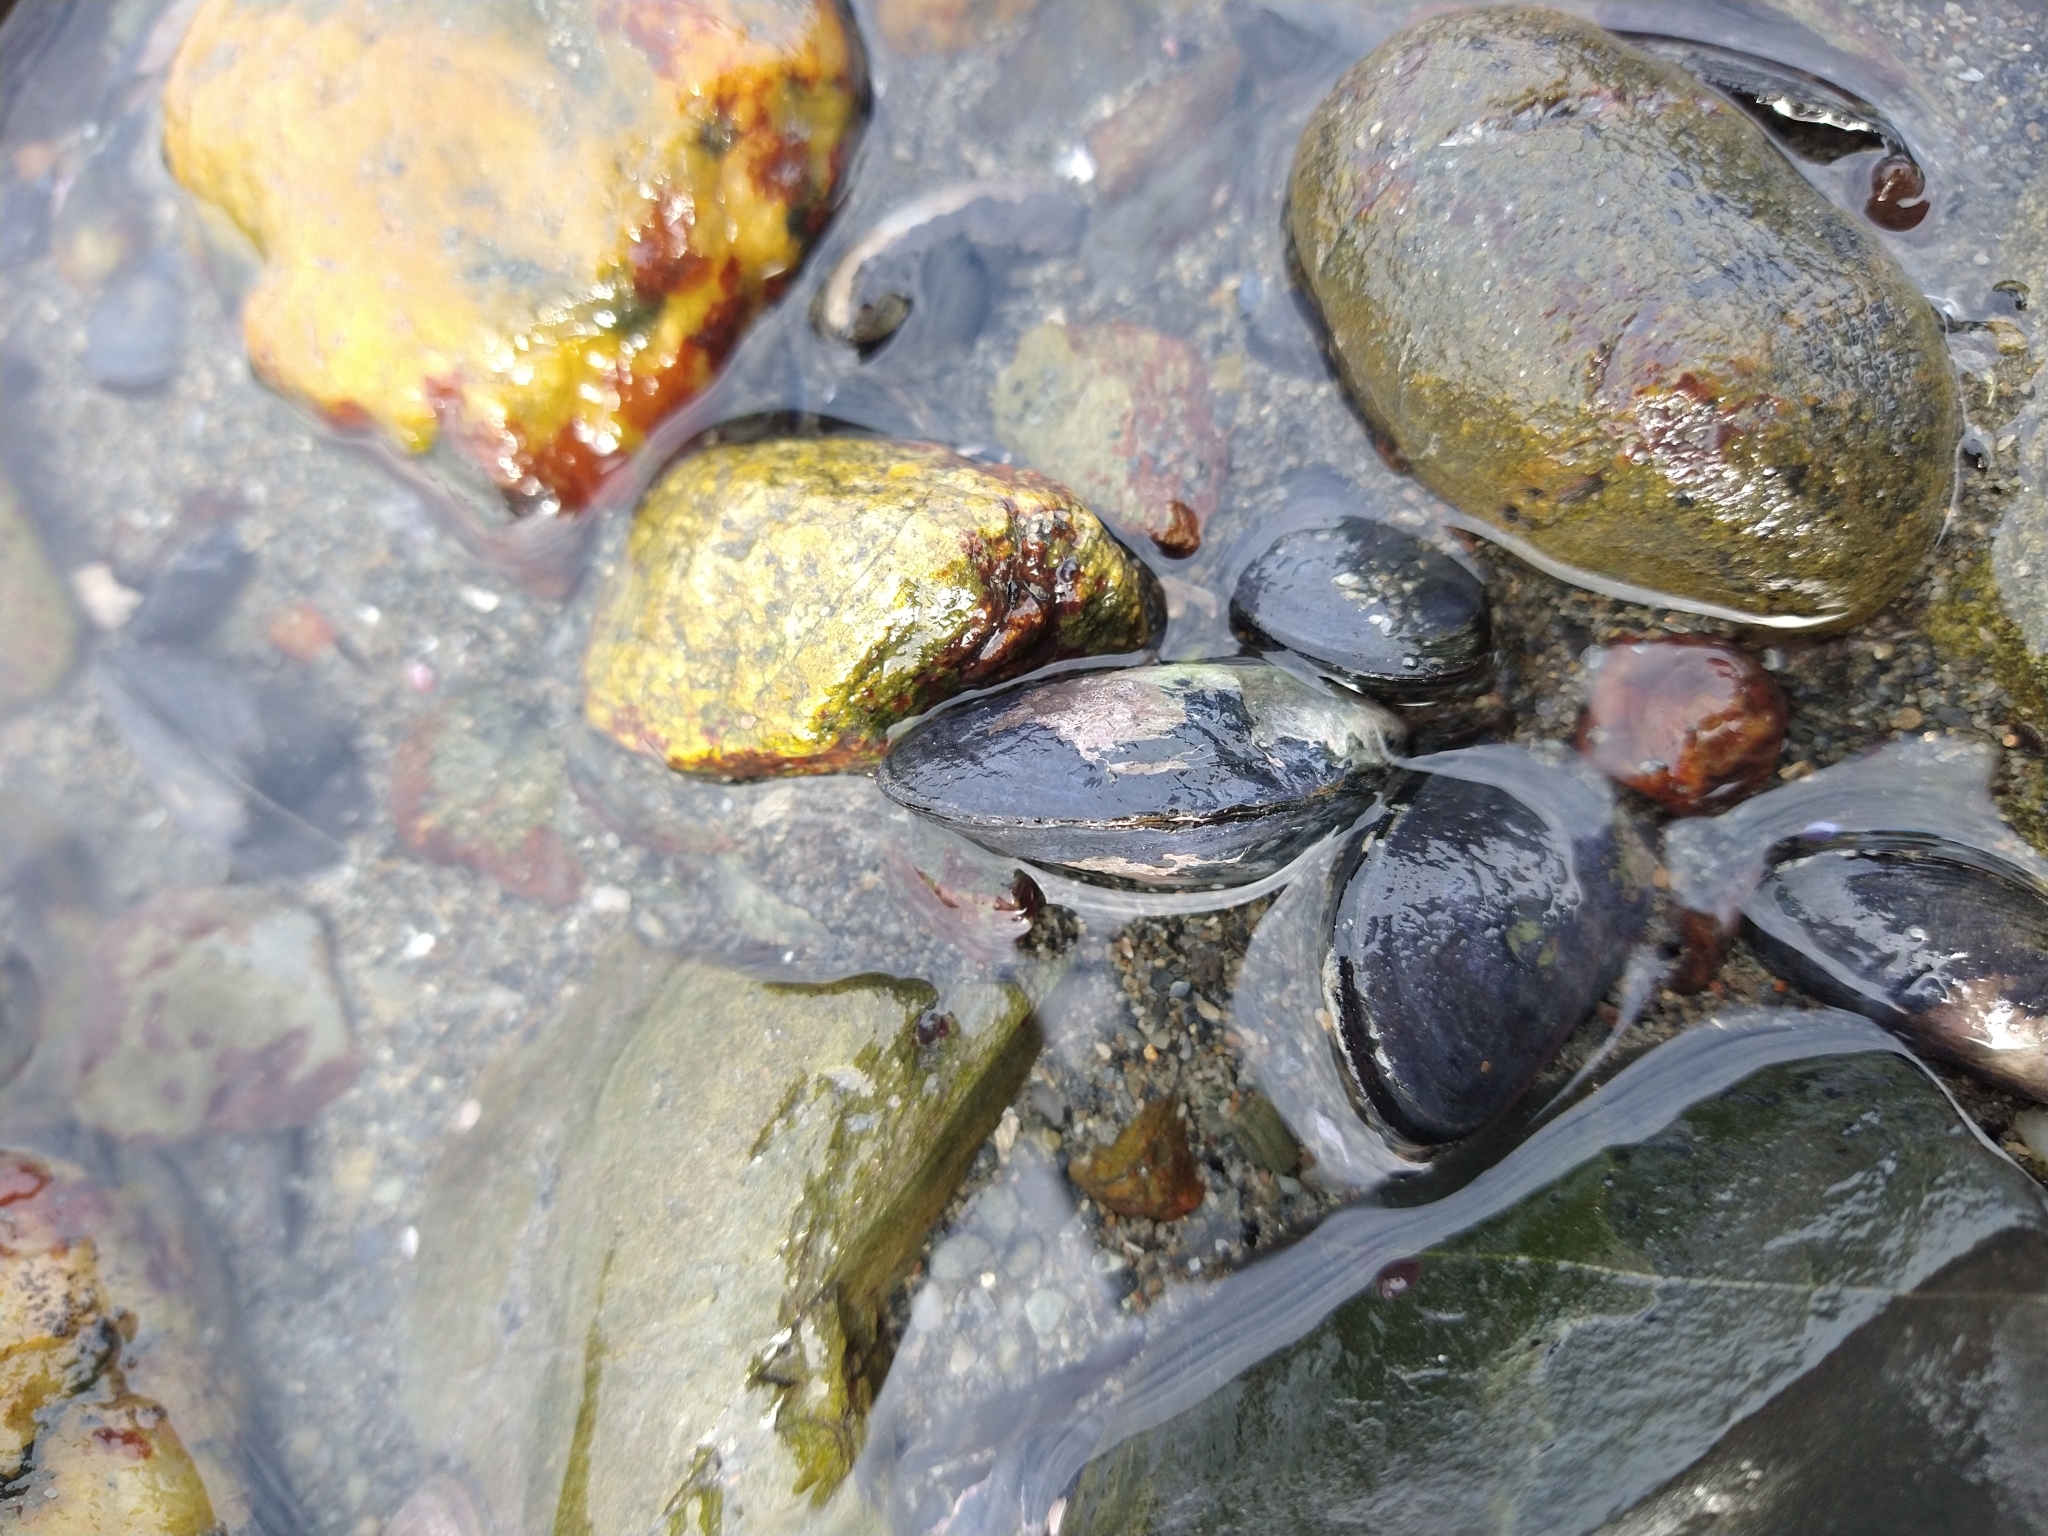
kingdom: Animalia
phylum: Mollusca
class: Bivalvia
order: Mytilida
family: Mytilidae
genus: Mytilus
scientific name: Mytilus chilensis
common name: Chilean mussel
